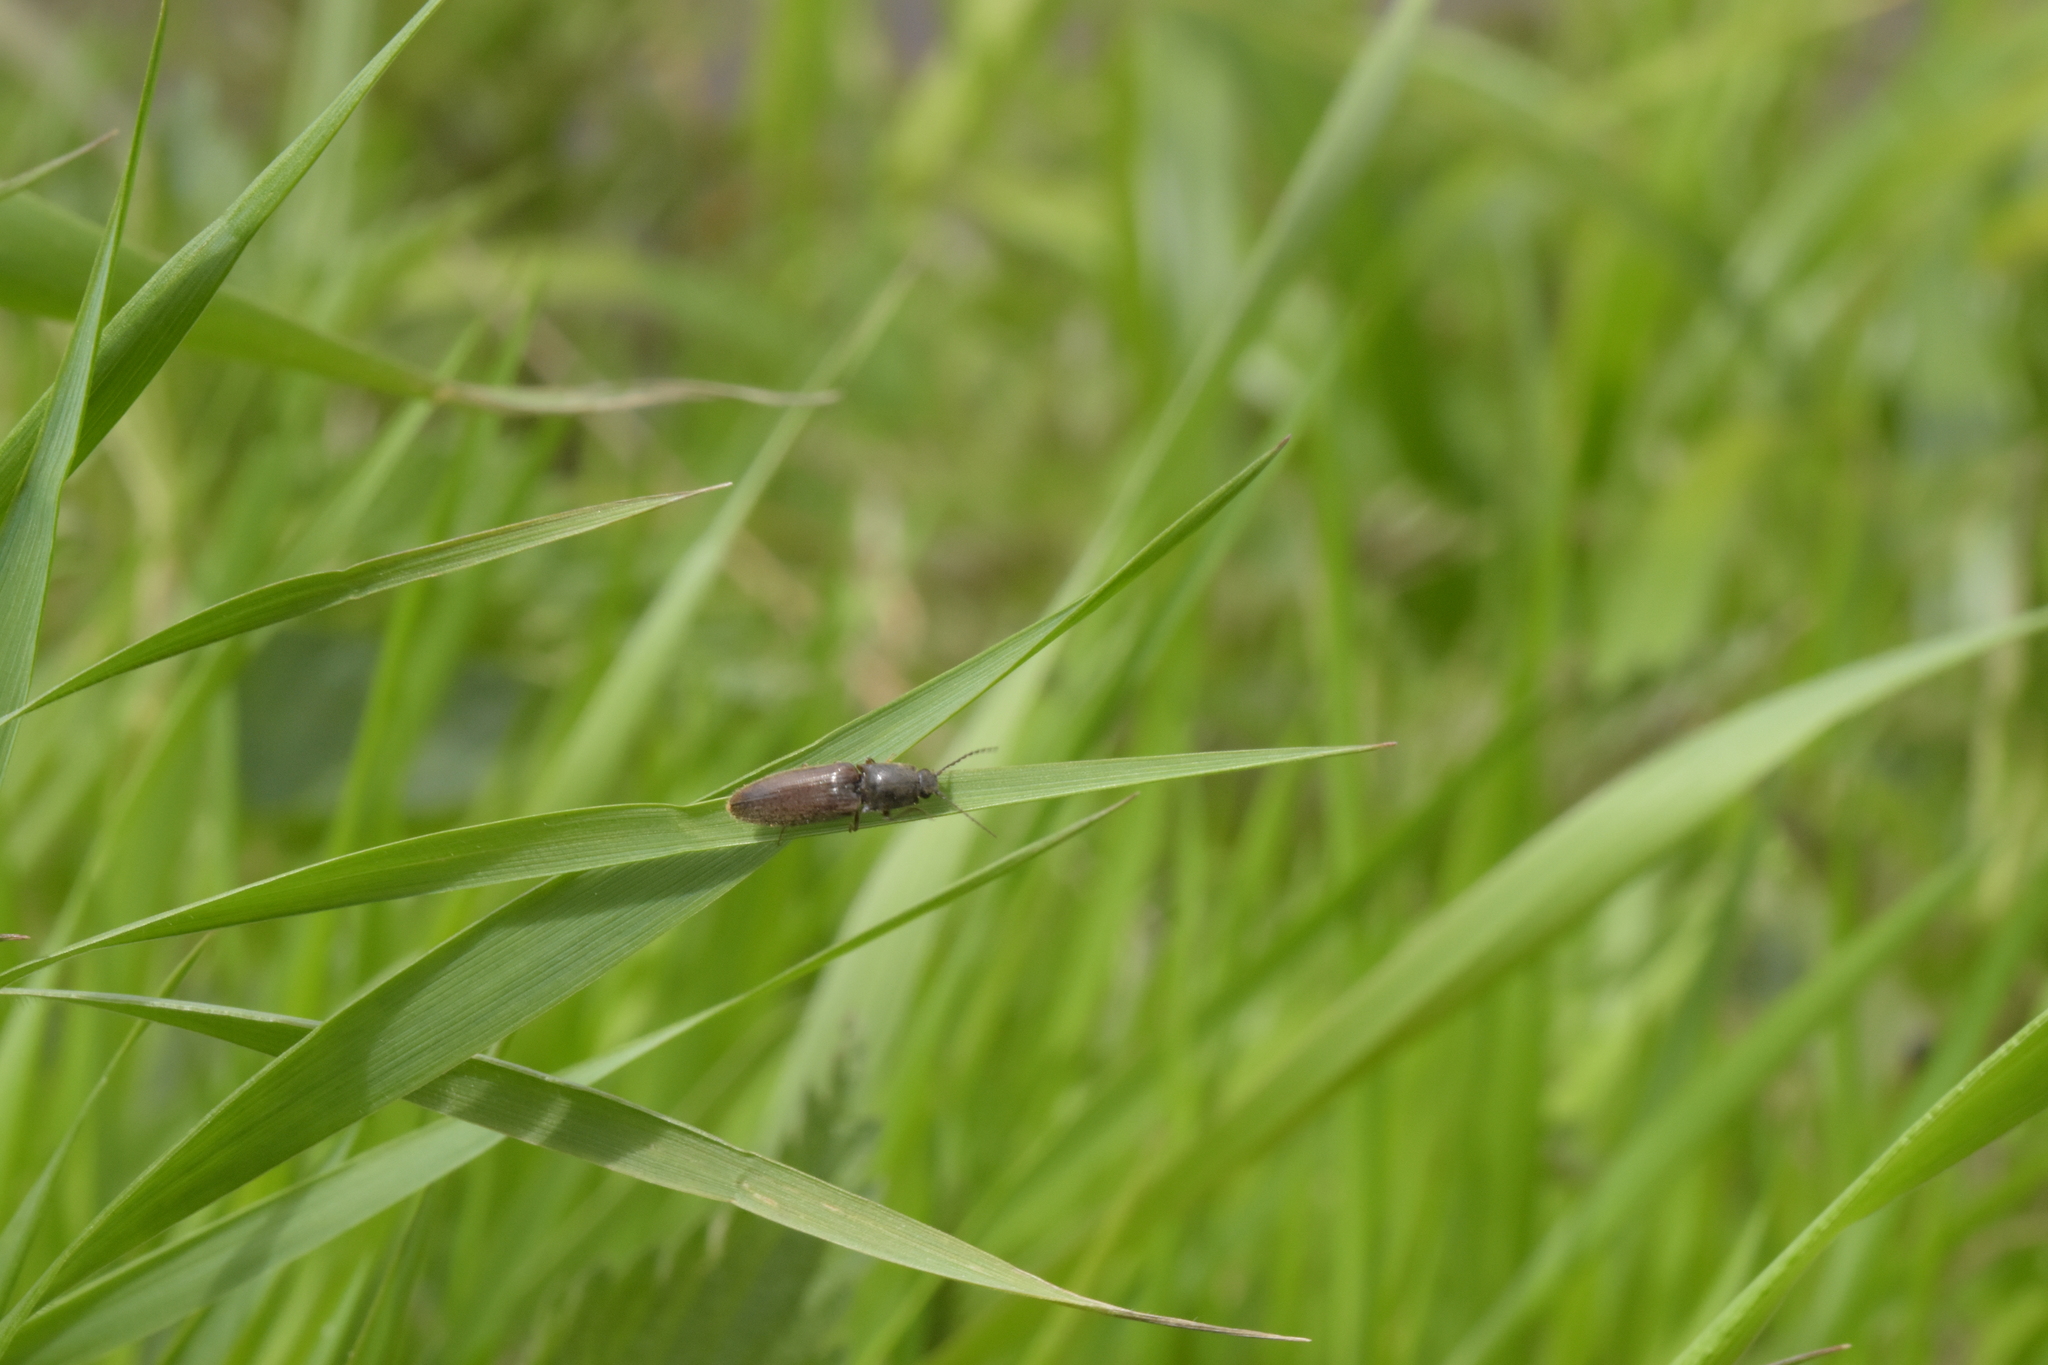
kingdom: Animalia
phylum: Arthropoda
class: Insecta
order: Coleoptera
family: Elateridae
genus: Athous
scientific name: Athous haemorrhoidalis
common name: Red-brown click beetle
